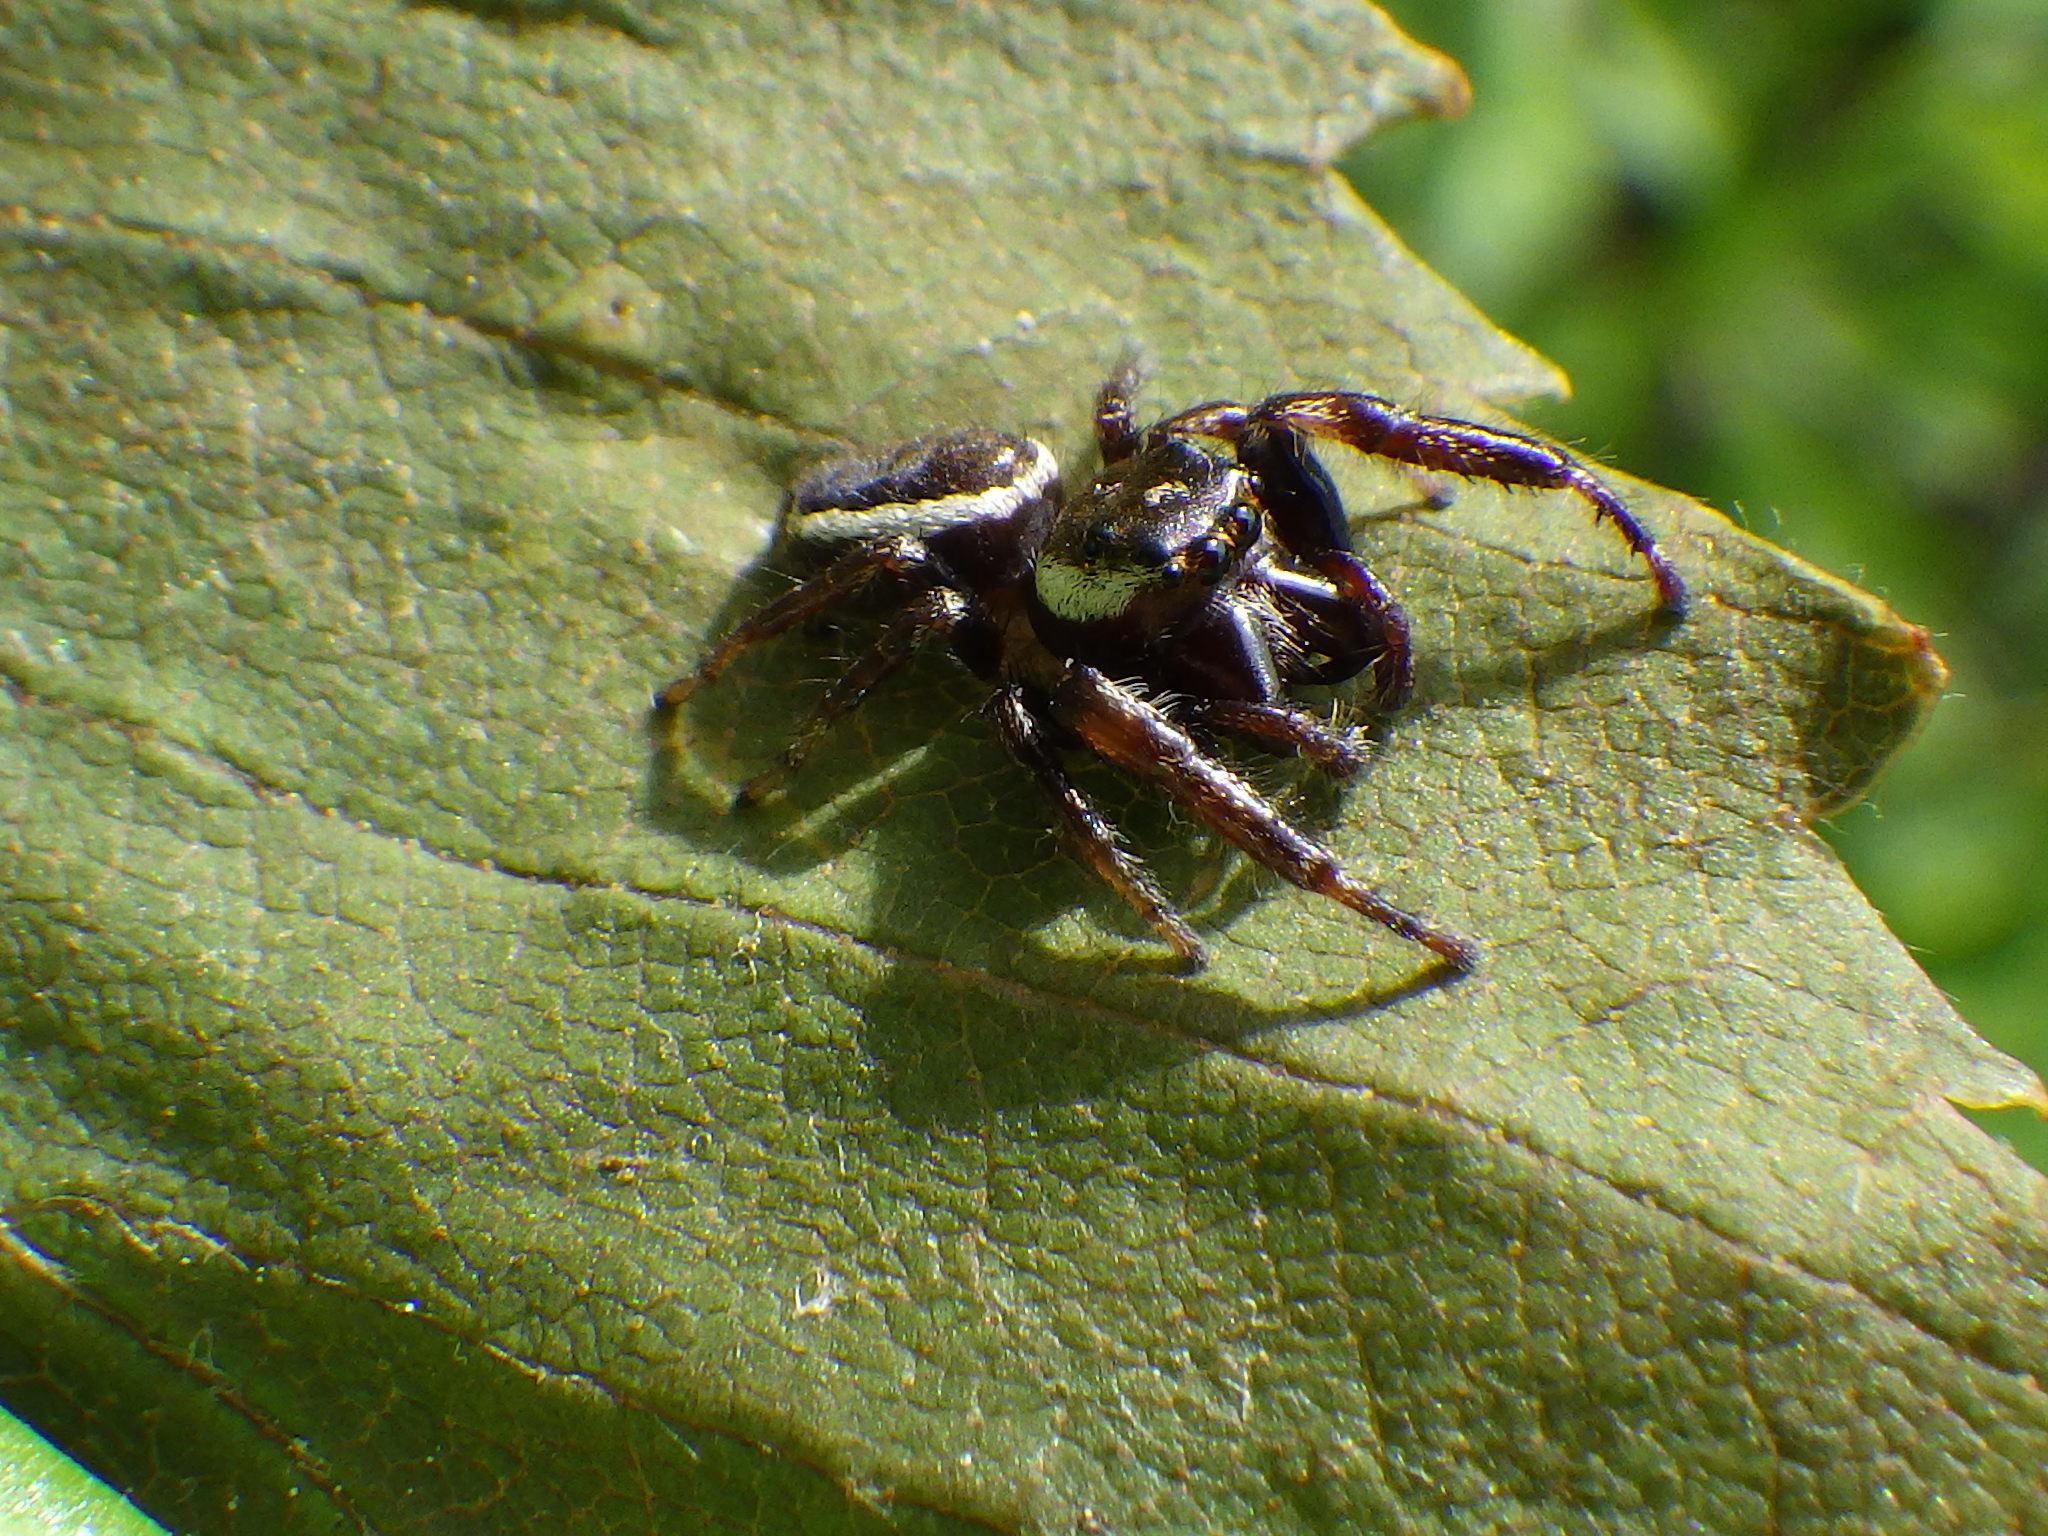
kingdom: Animalia
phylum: Arthropoda
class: Arachnida
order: Araneae
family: Salticidae
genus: Eris
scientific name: Eris militaris
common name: Bronze jumper
